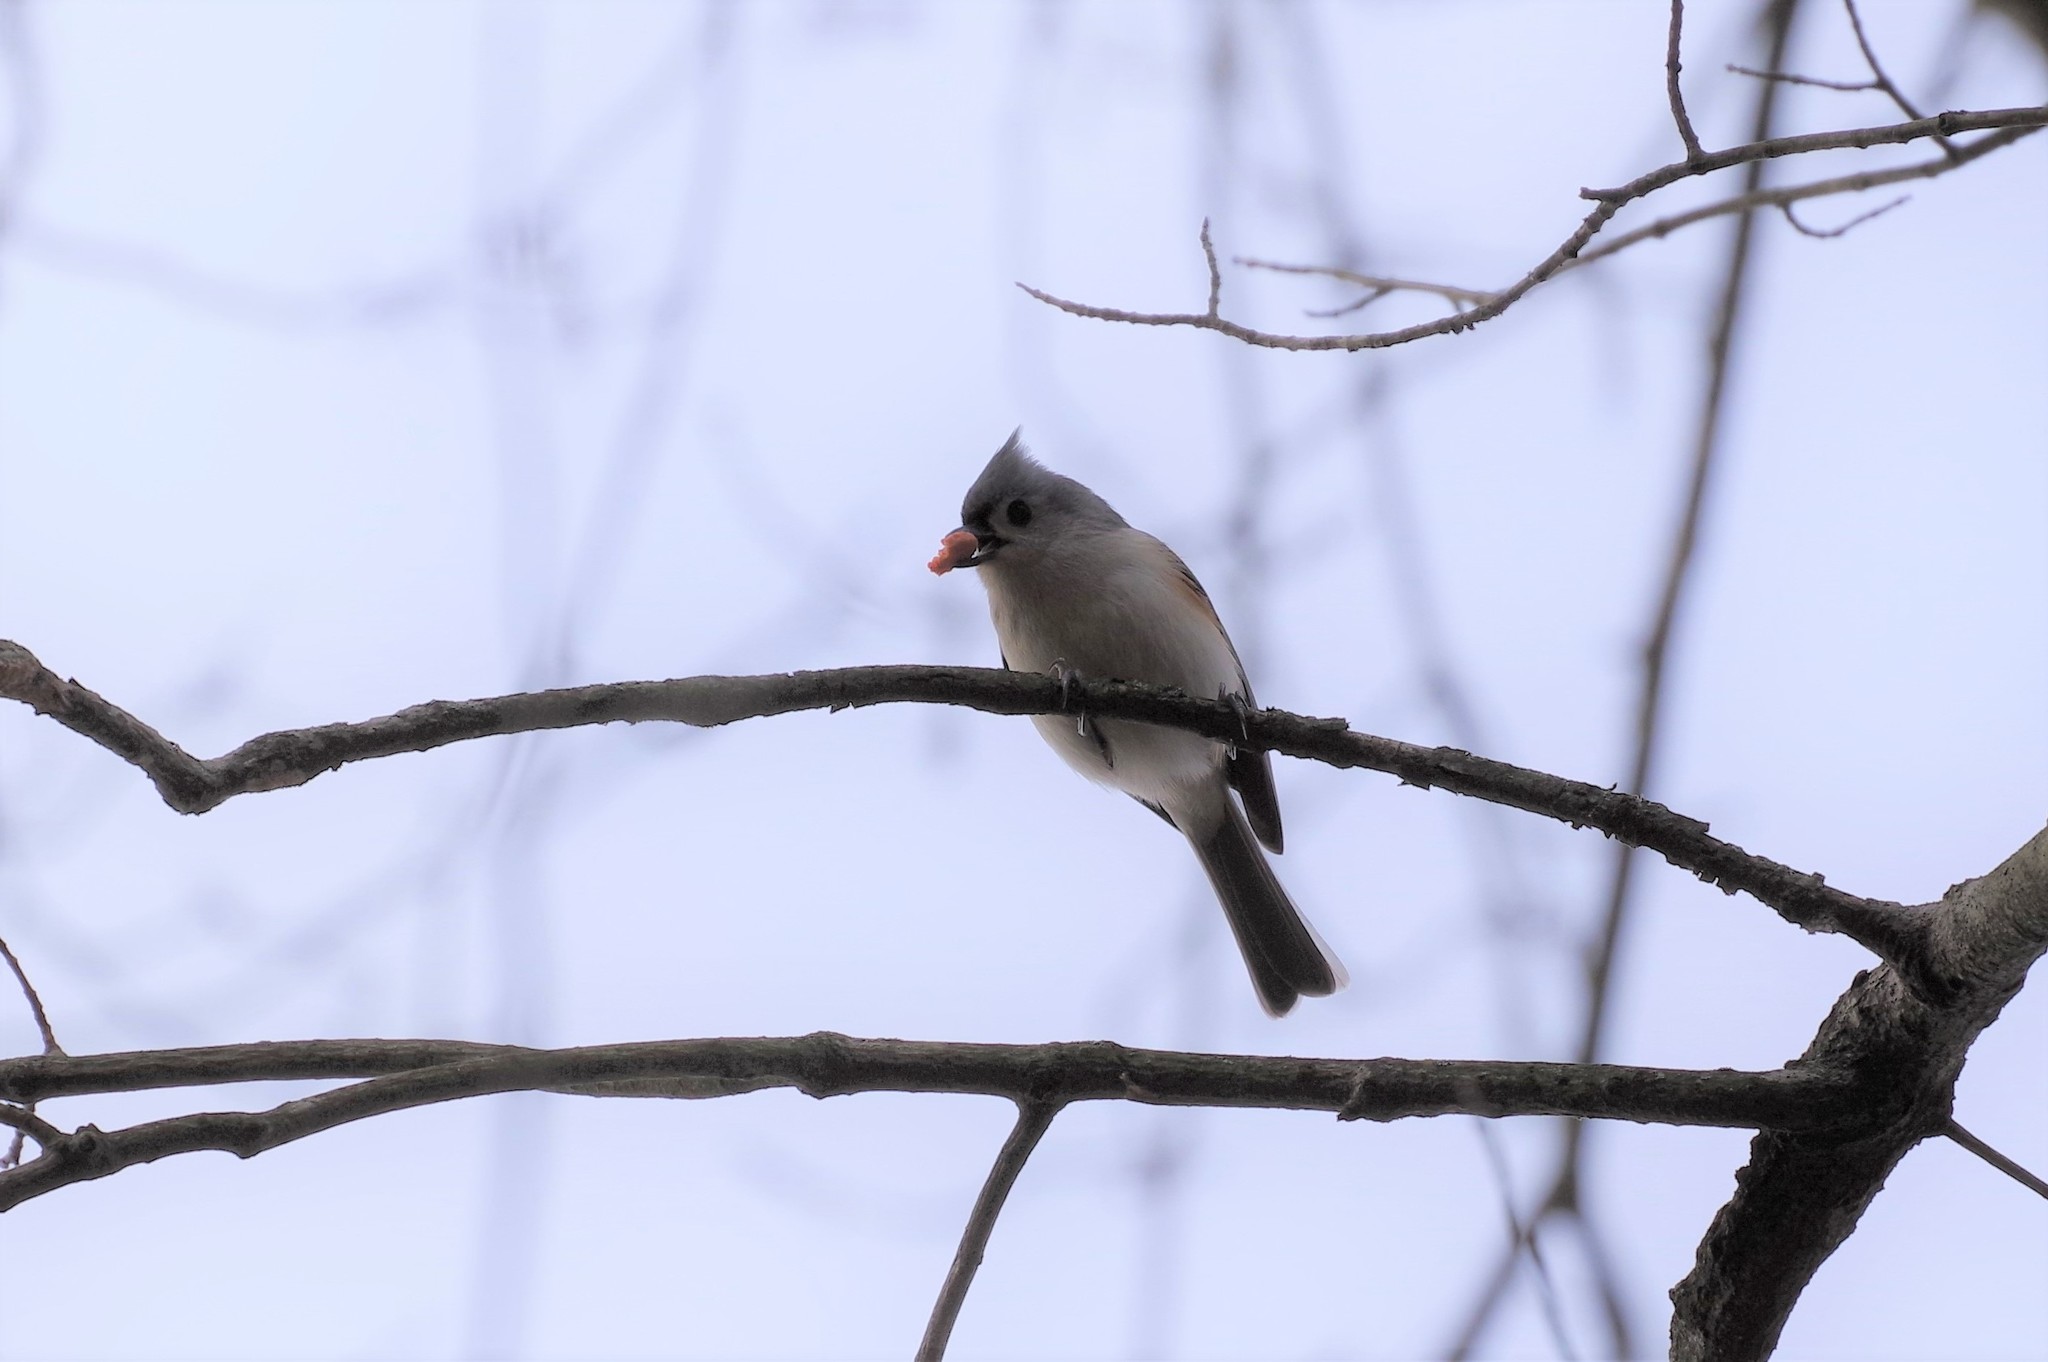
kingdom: Animalia
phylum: Chordata
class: Aves
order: Passeriformes
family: Paridae
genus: Baeolophus
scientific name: Baeolophus bicolor
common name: Tufted titmouse
